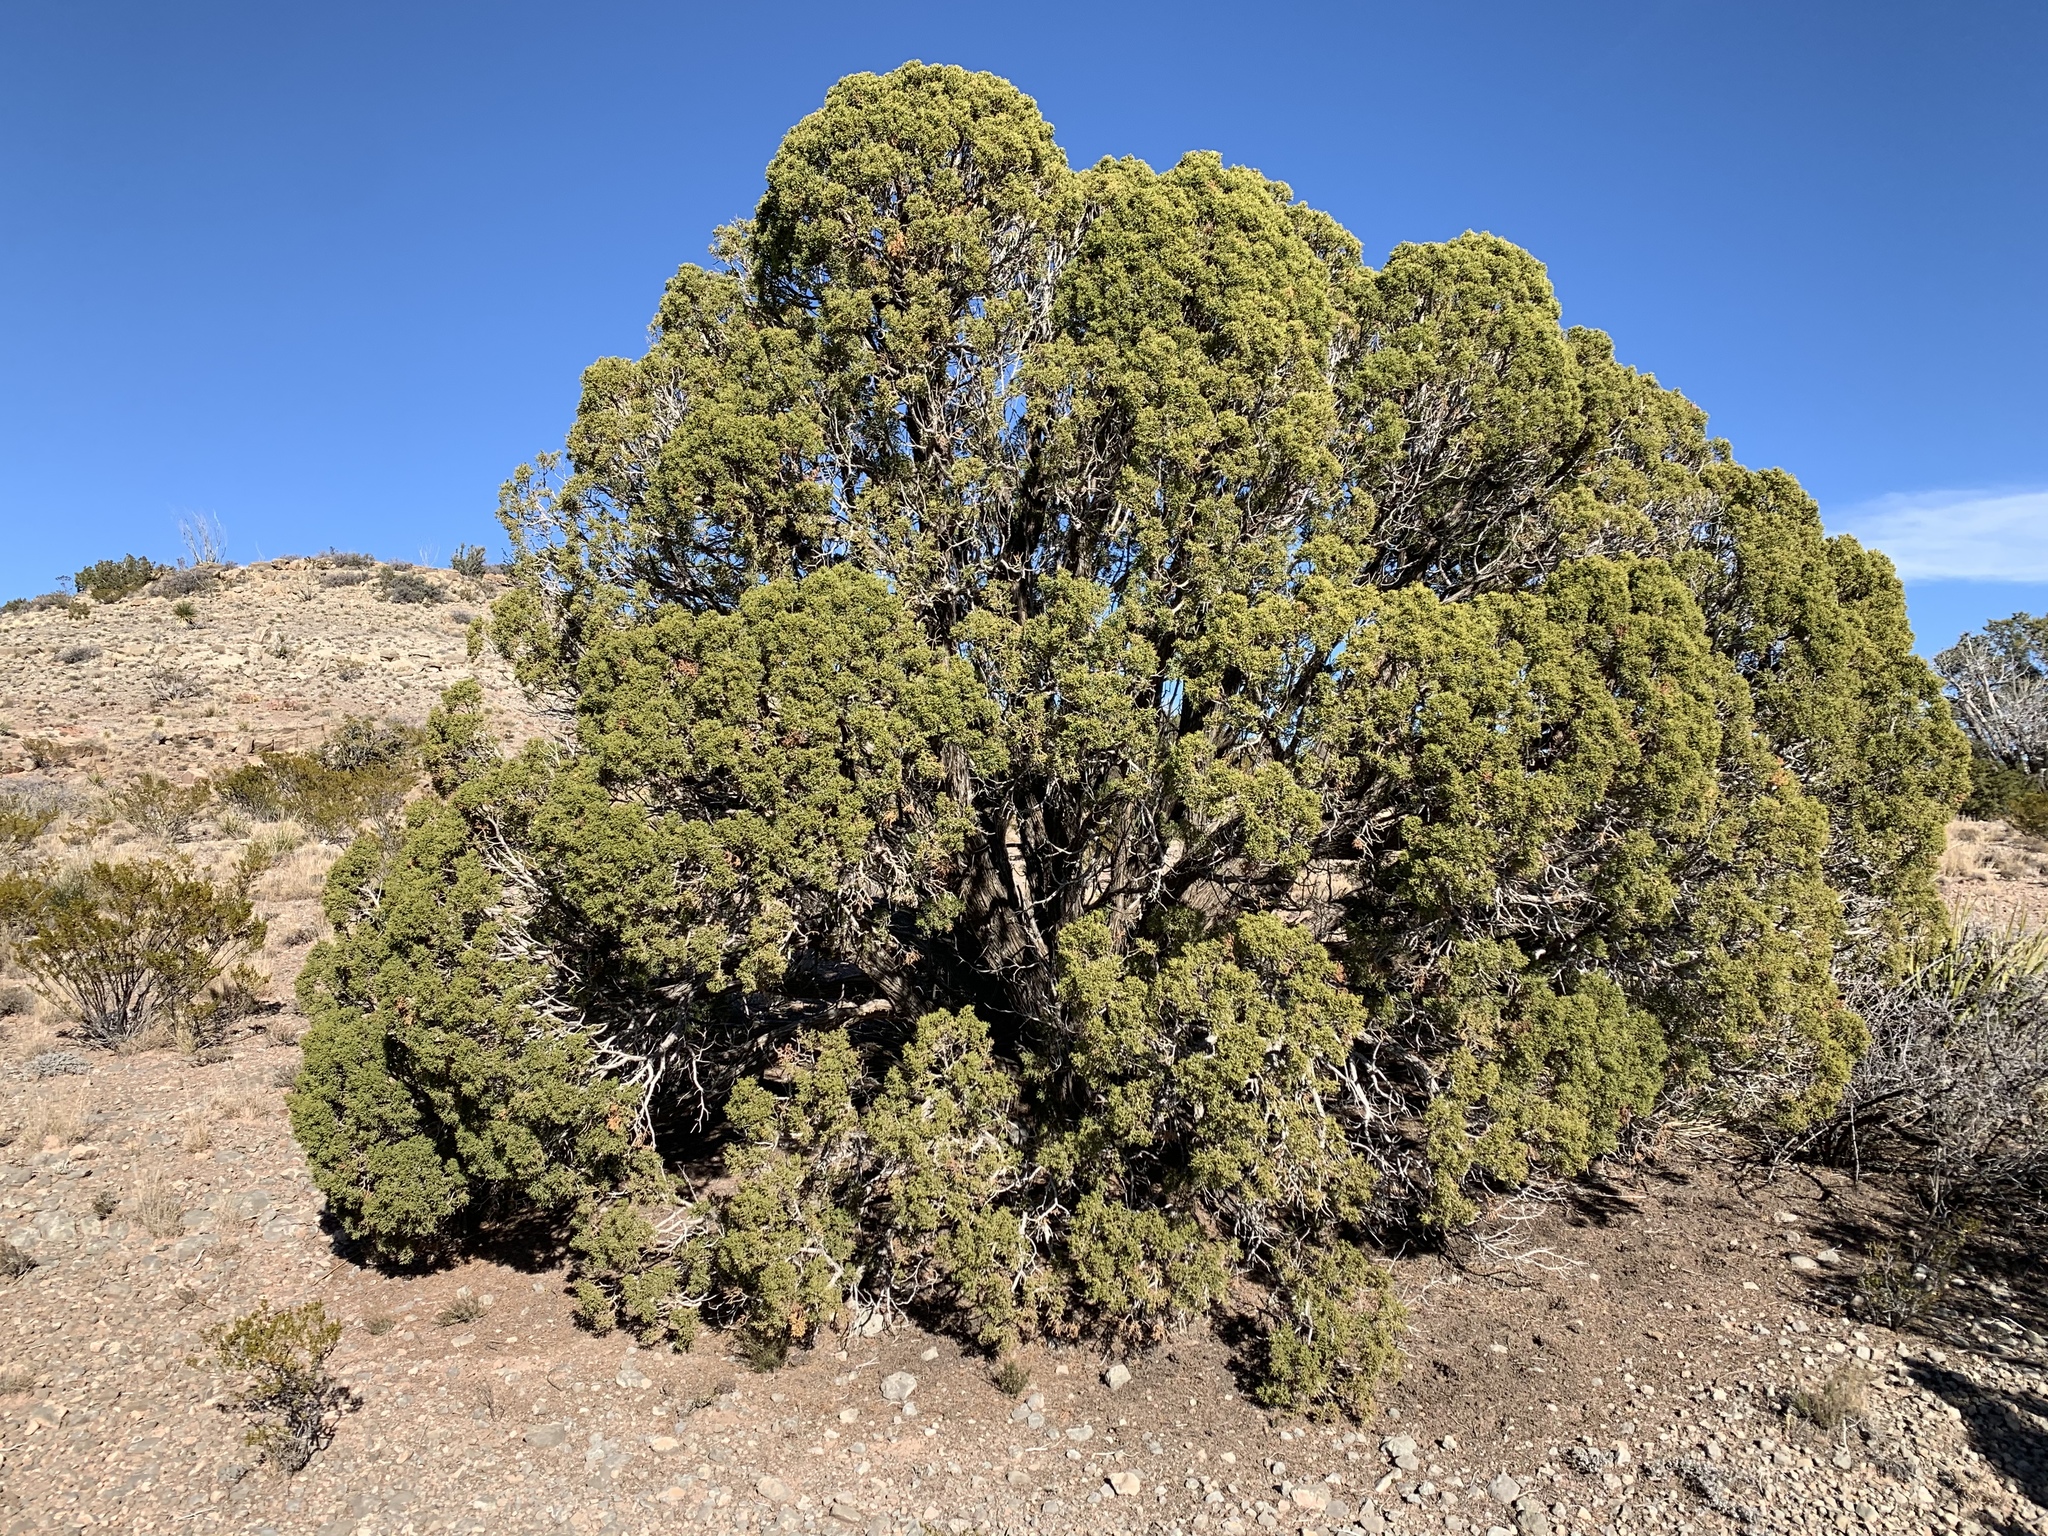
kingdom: Plantae
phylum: Tracheophyta
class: Pinopsida
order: Pinales
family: Cupressaceae
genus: Juniperus
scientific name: Juniperus monosperma
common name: One-seed juniper
